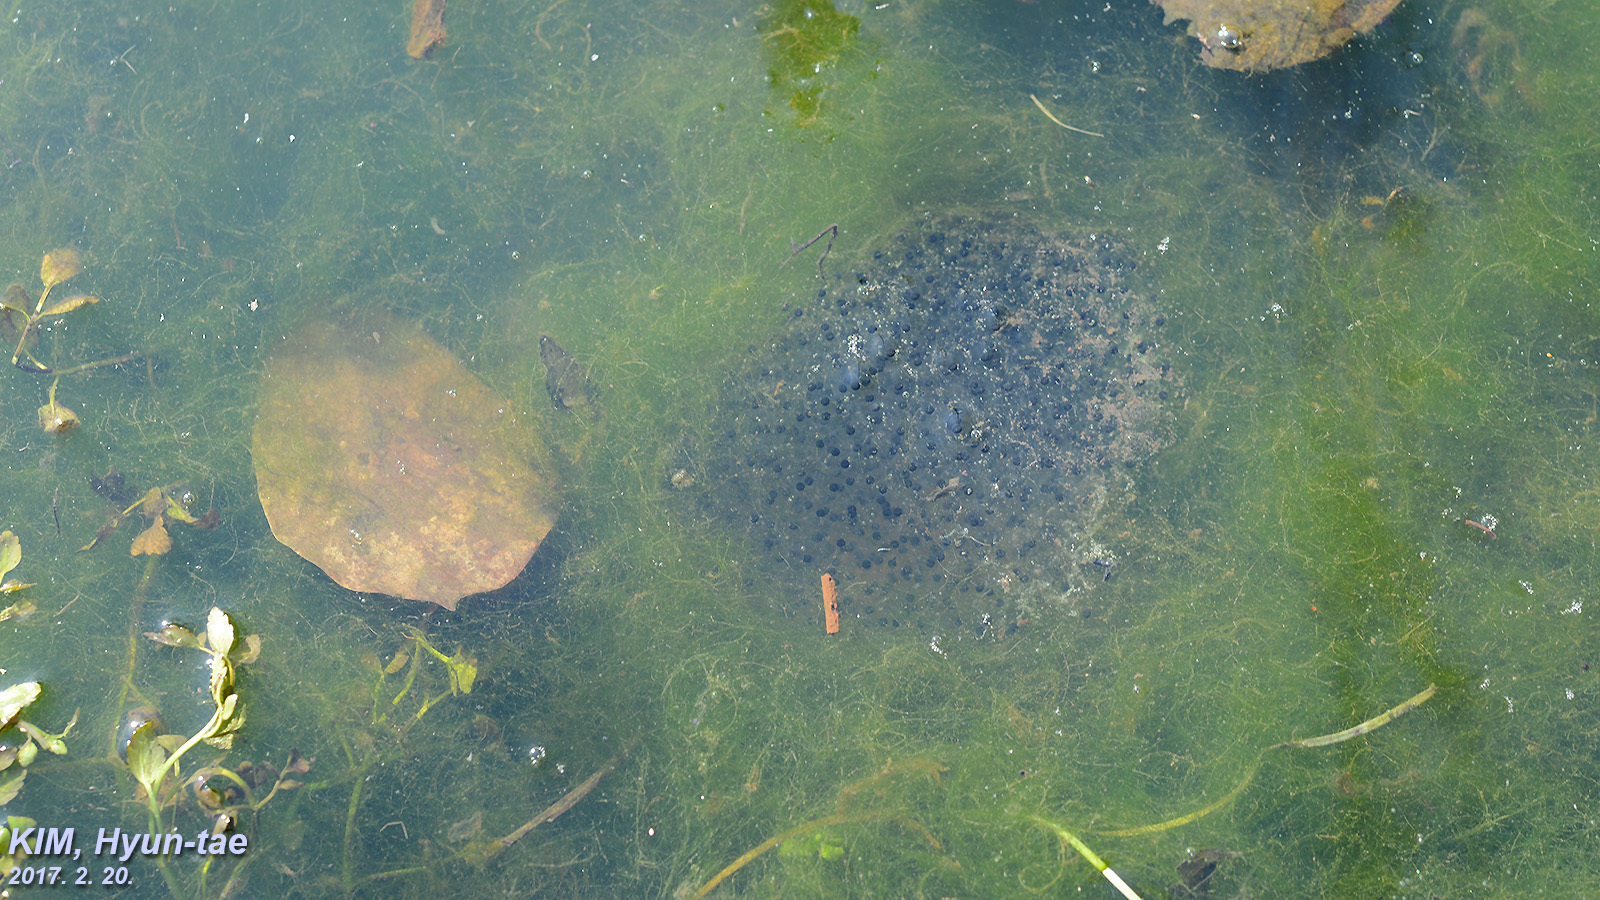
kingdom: Animalia
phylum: Chordata
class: Amphibia
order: Anura
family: Ranidae
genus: Rana
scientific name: Rana uenoi
